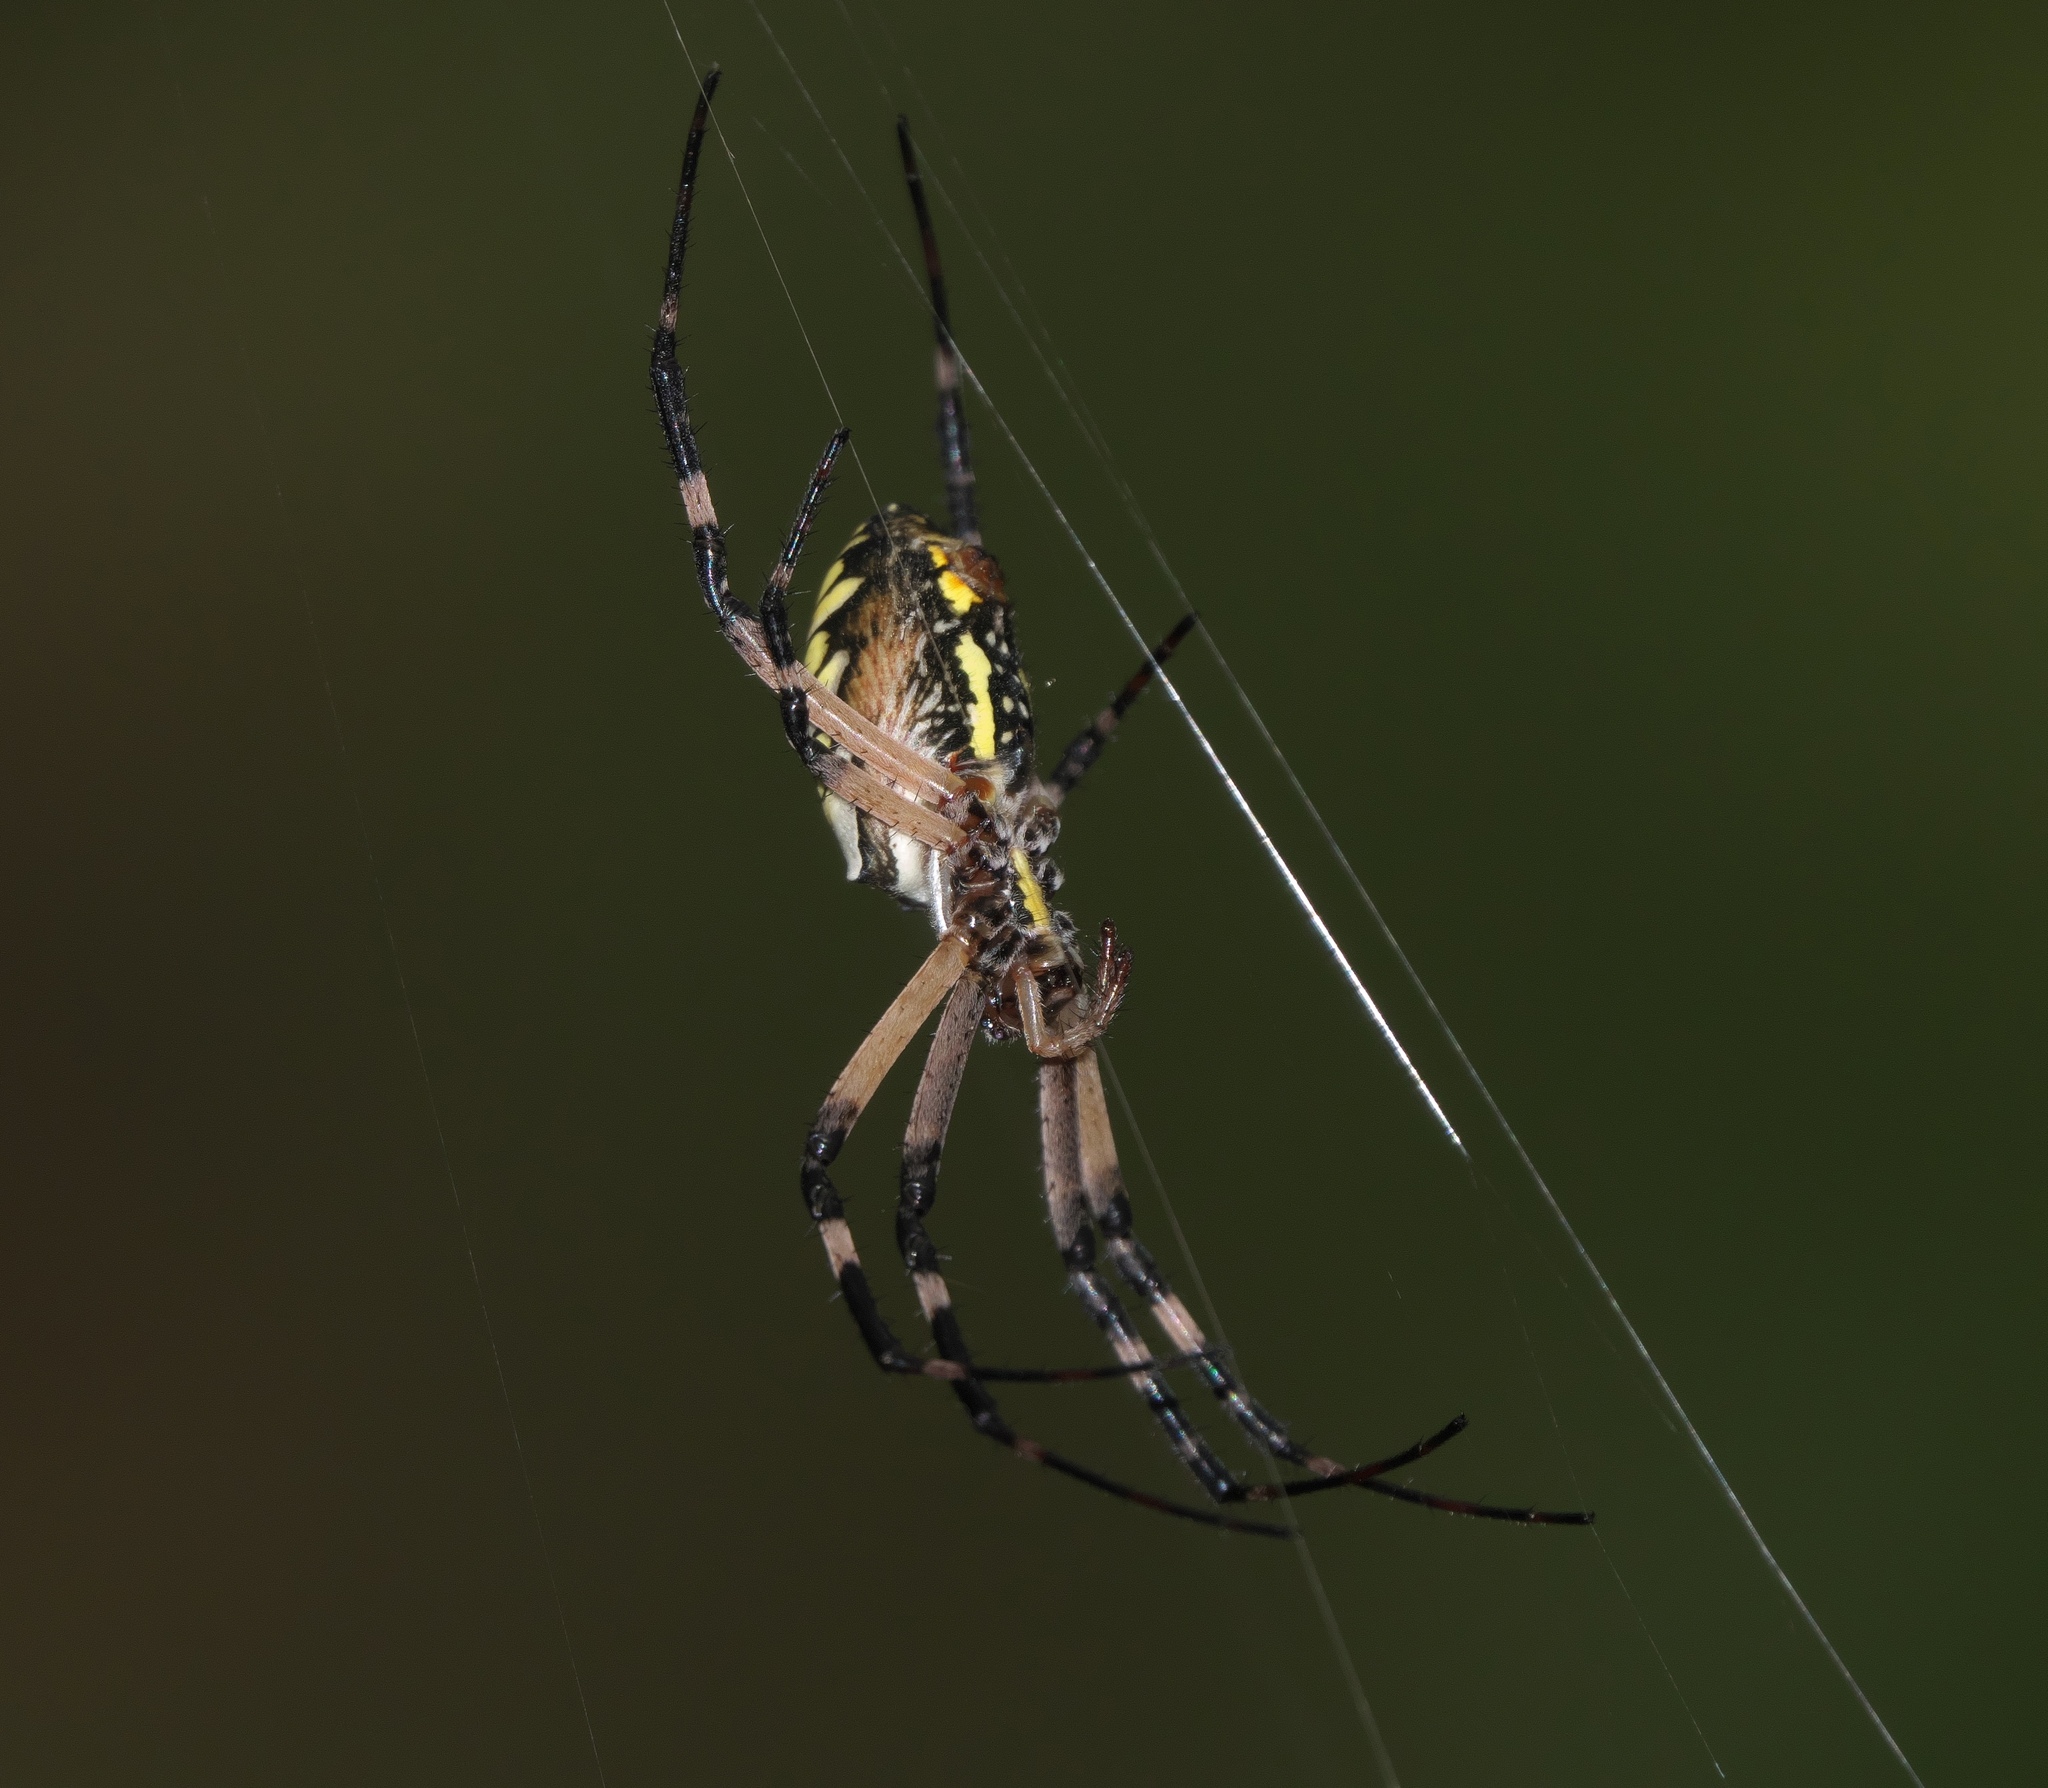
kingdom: Animalia
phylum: Arthropoda
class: Arachnida
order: Araneae
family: Araneidae
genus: Argiope
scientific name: Argiope aurantia
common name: Orb weavers
